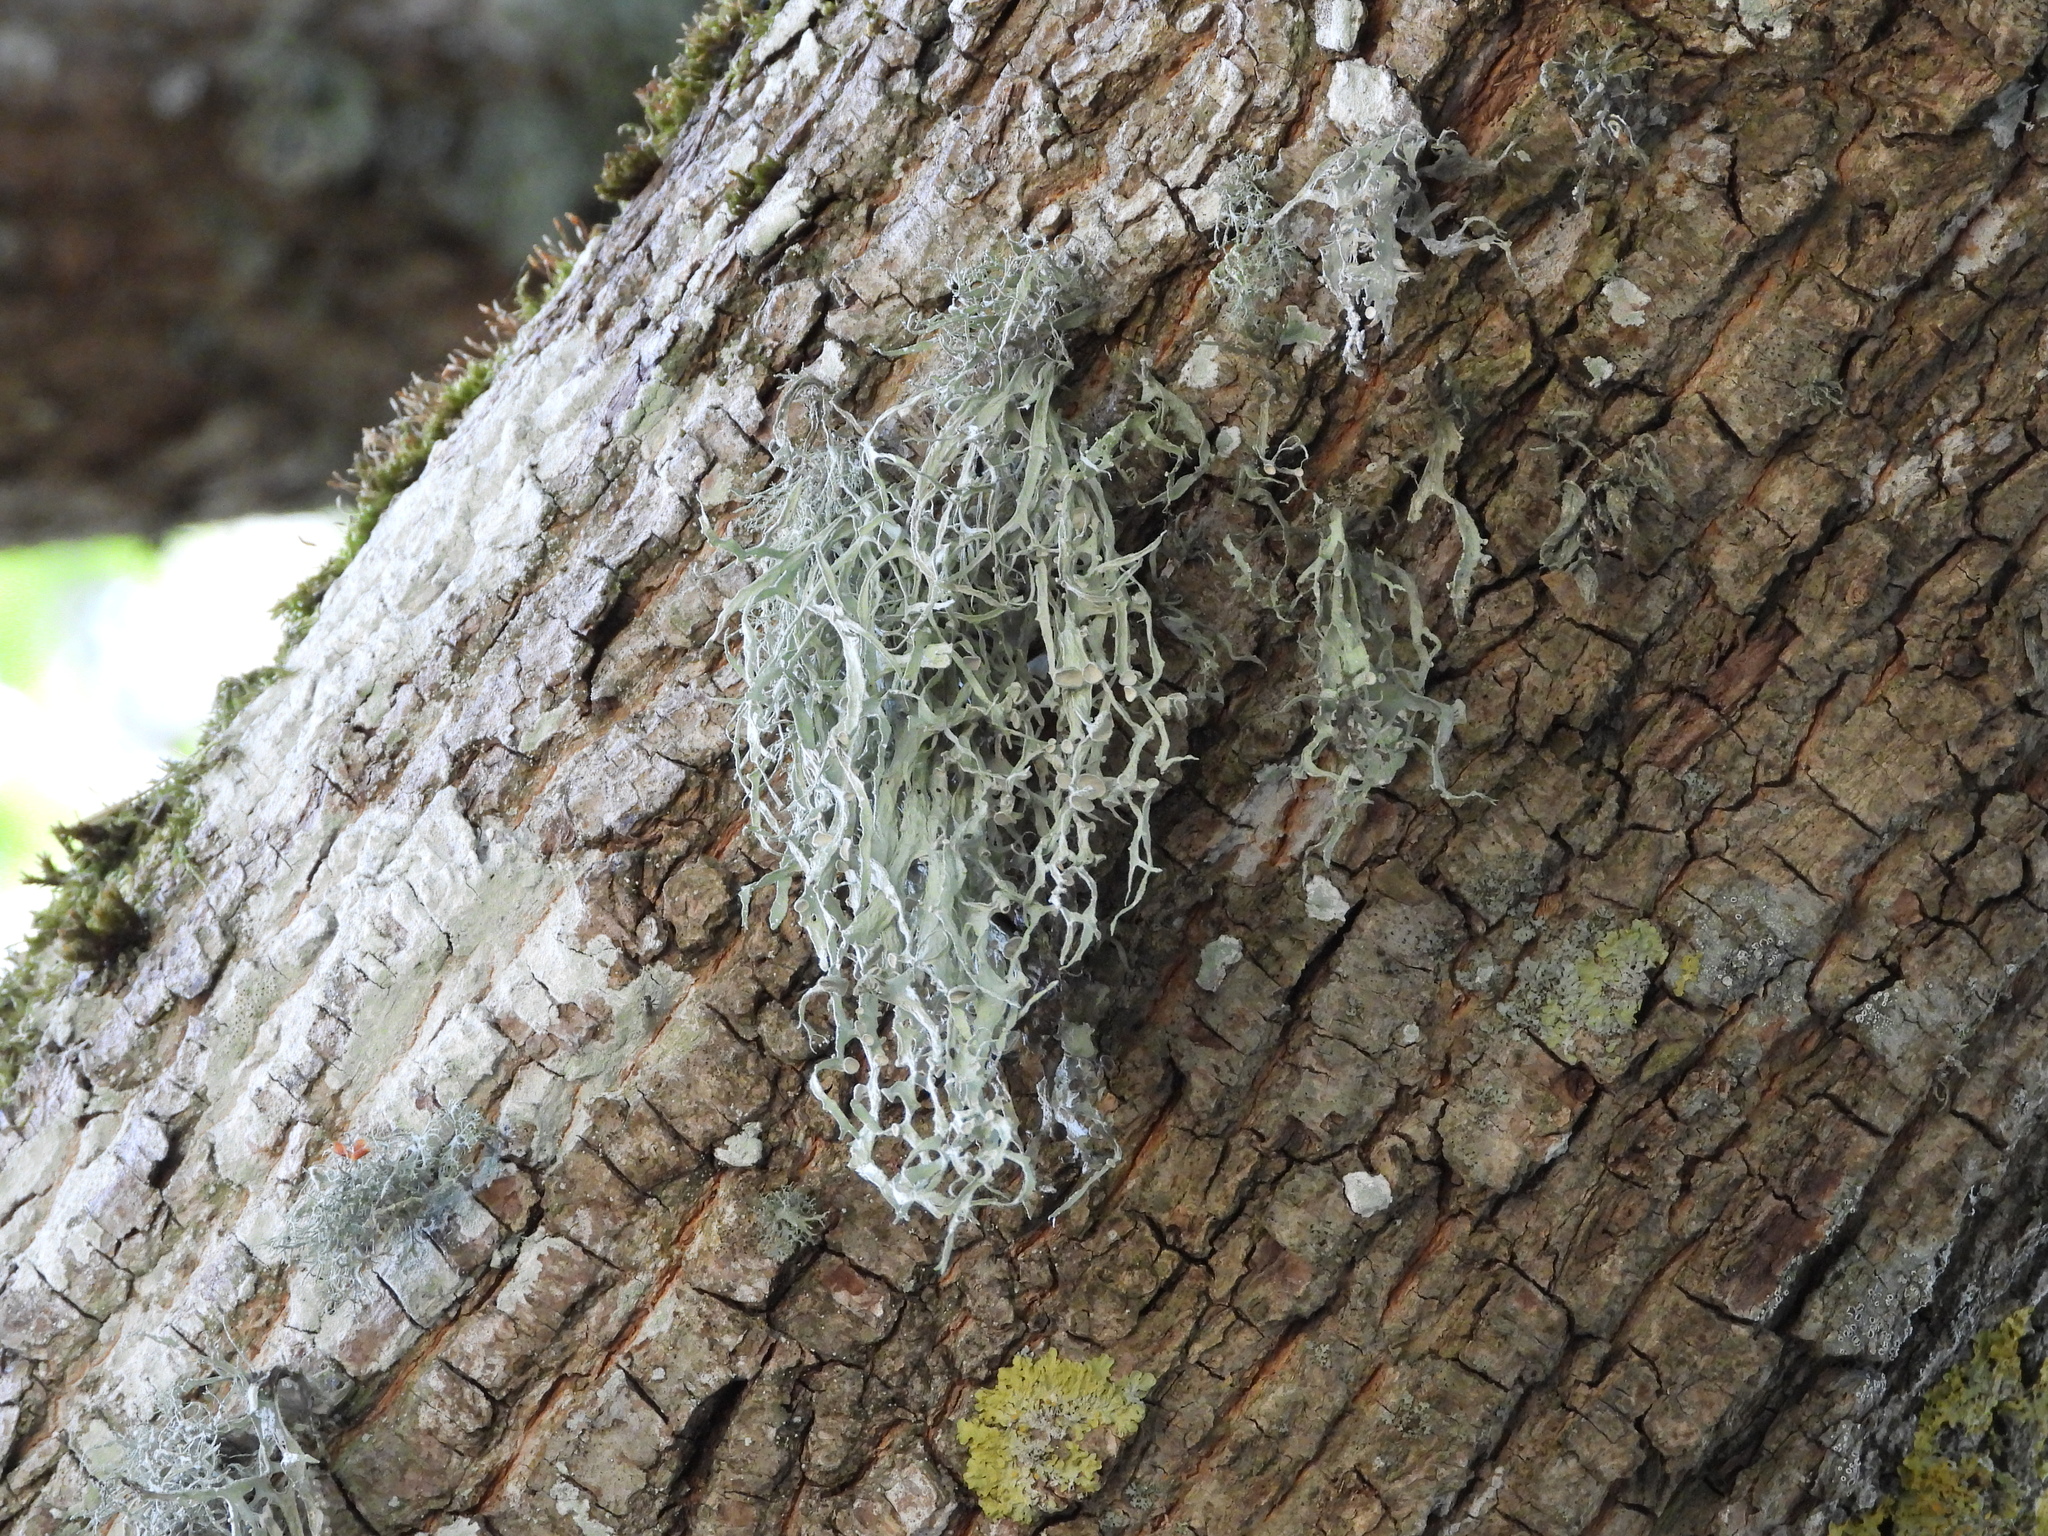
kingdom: Fungi
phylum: Ascomycota
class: Lecanoromycetes
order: Lecanorales
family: Ramalinaceae
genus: Ramalina
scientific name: Ramalina fraxinea
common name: Cartilage lichen
